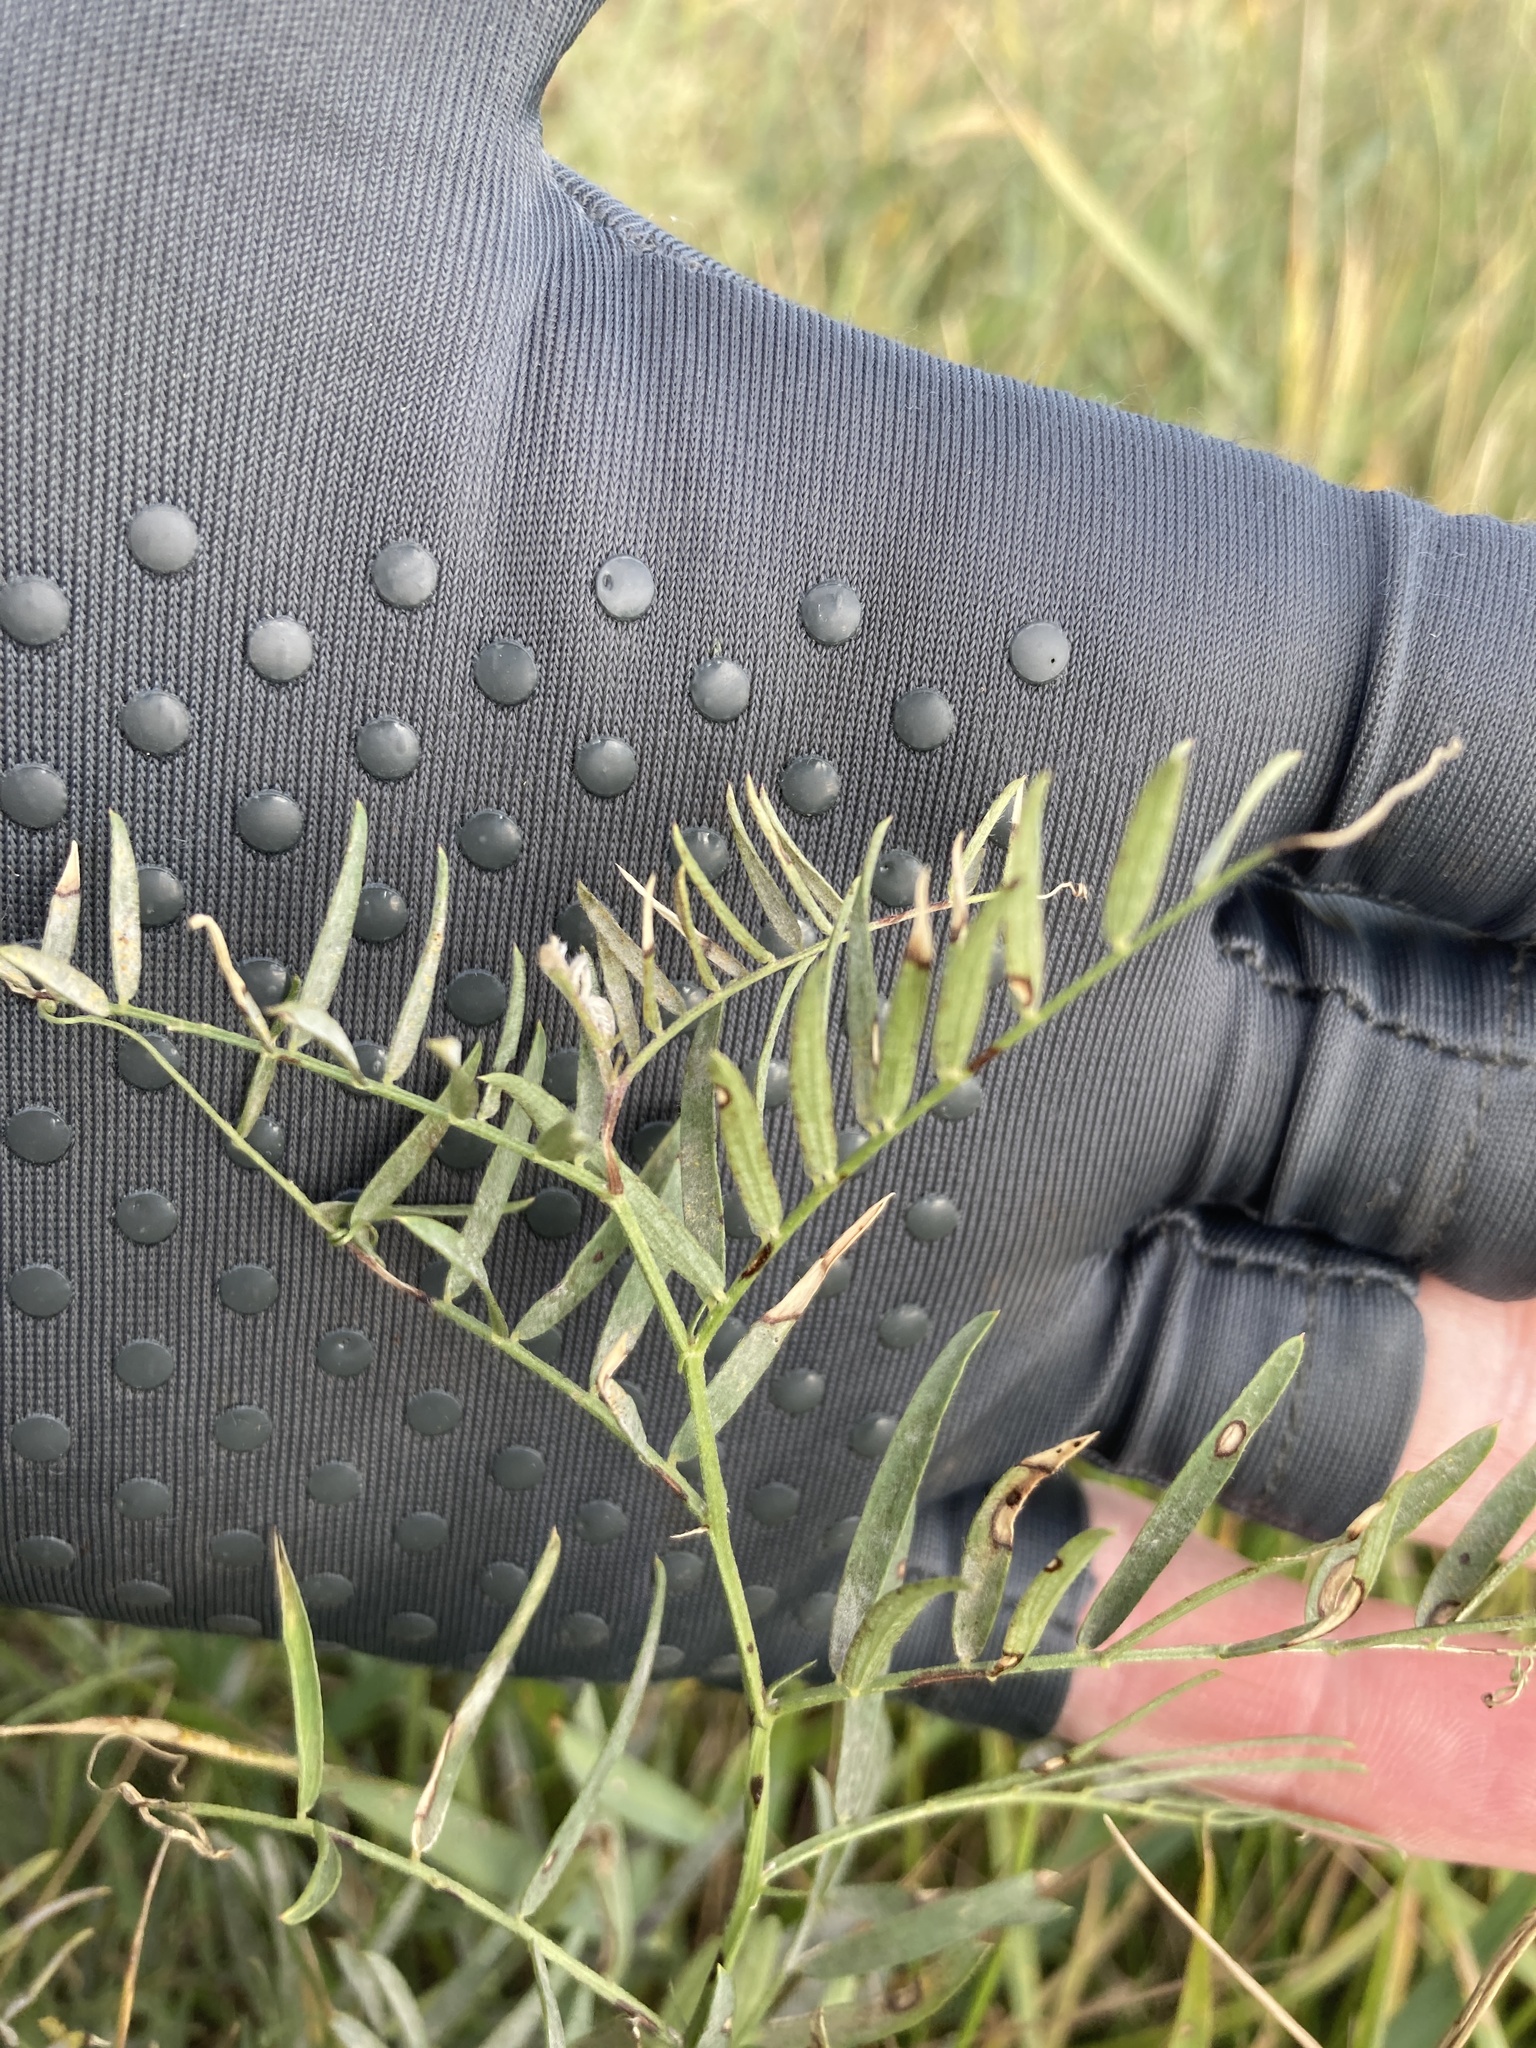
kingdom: Plantae
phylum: Tracheophyta
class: Magnoliopsida
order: Fabales
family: Fabaceae
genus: Vicia
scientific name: Vicia tenuifolia
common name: Fine-leaved vetch
